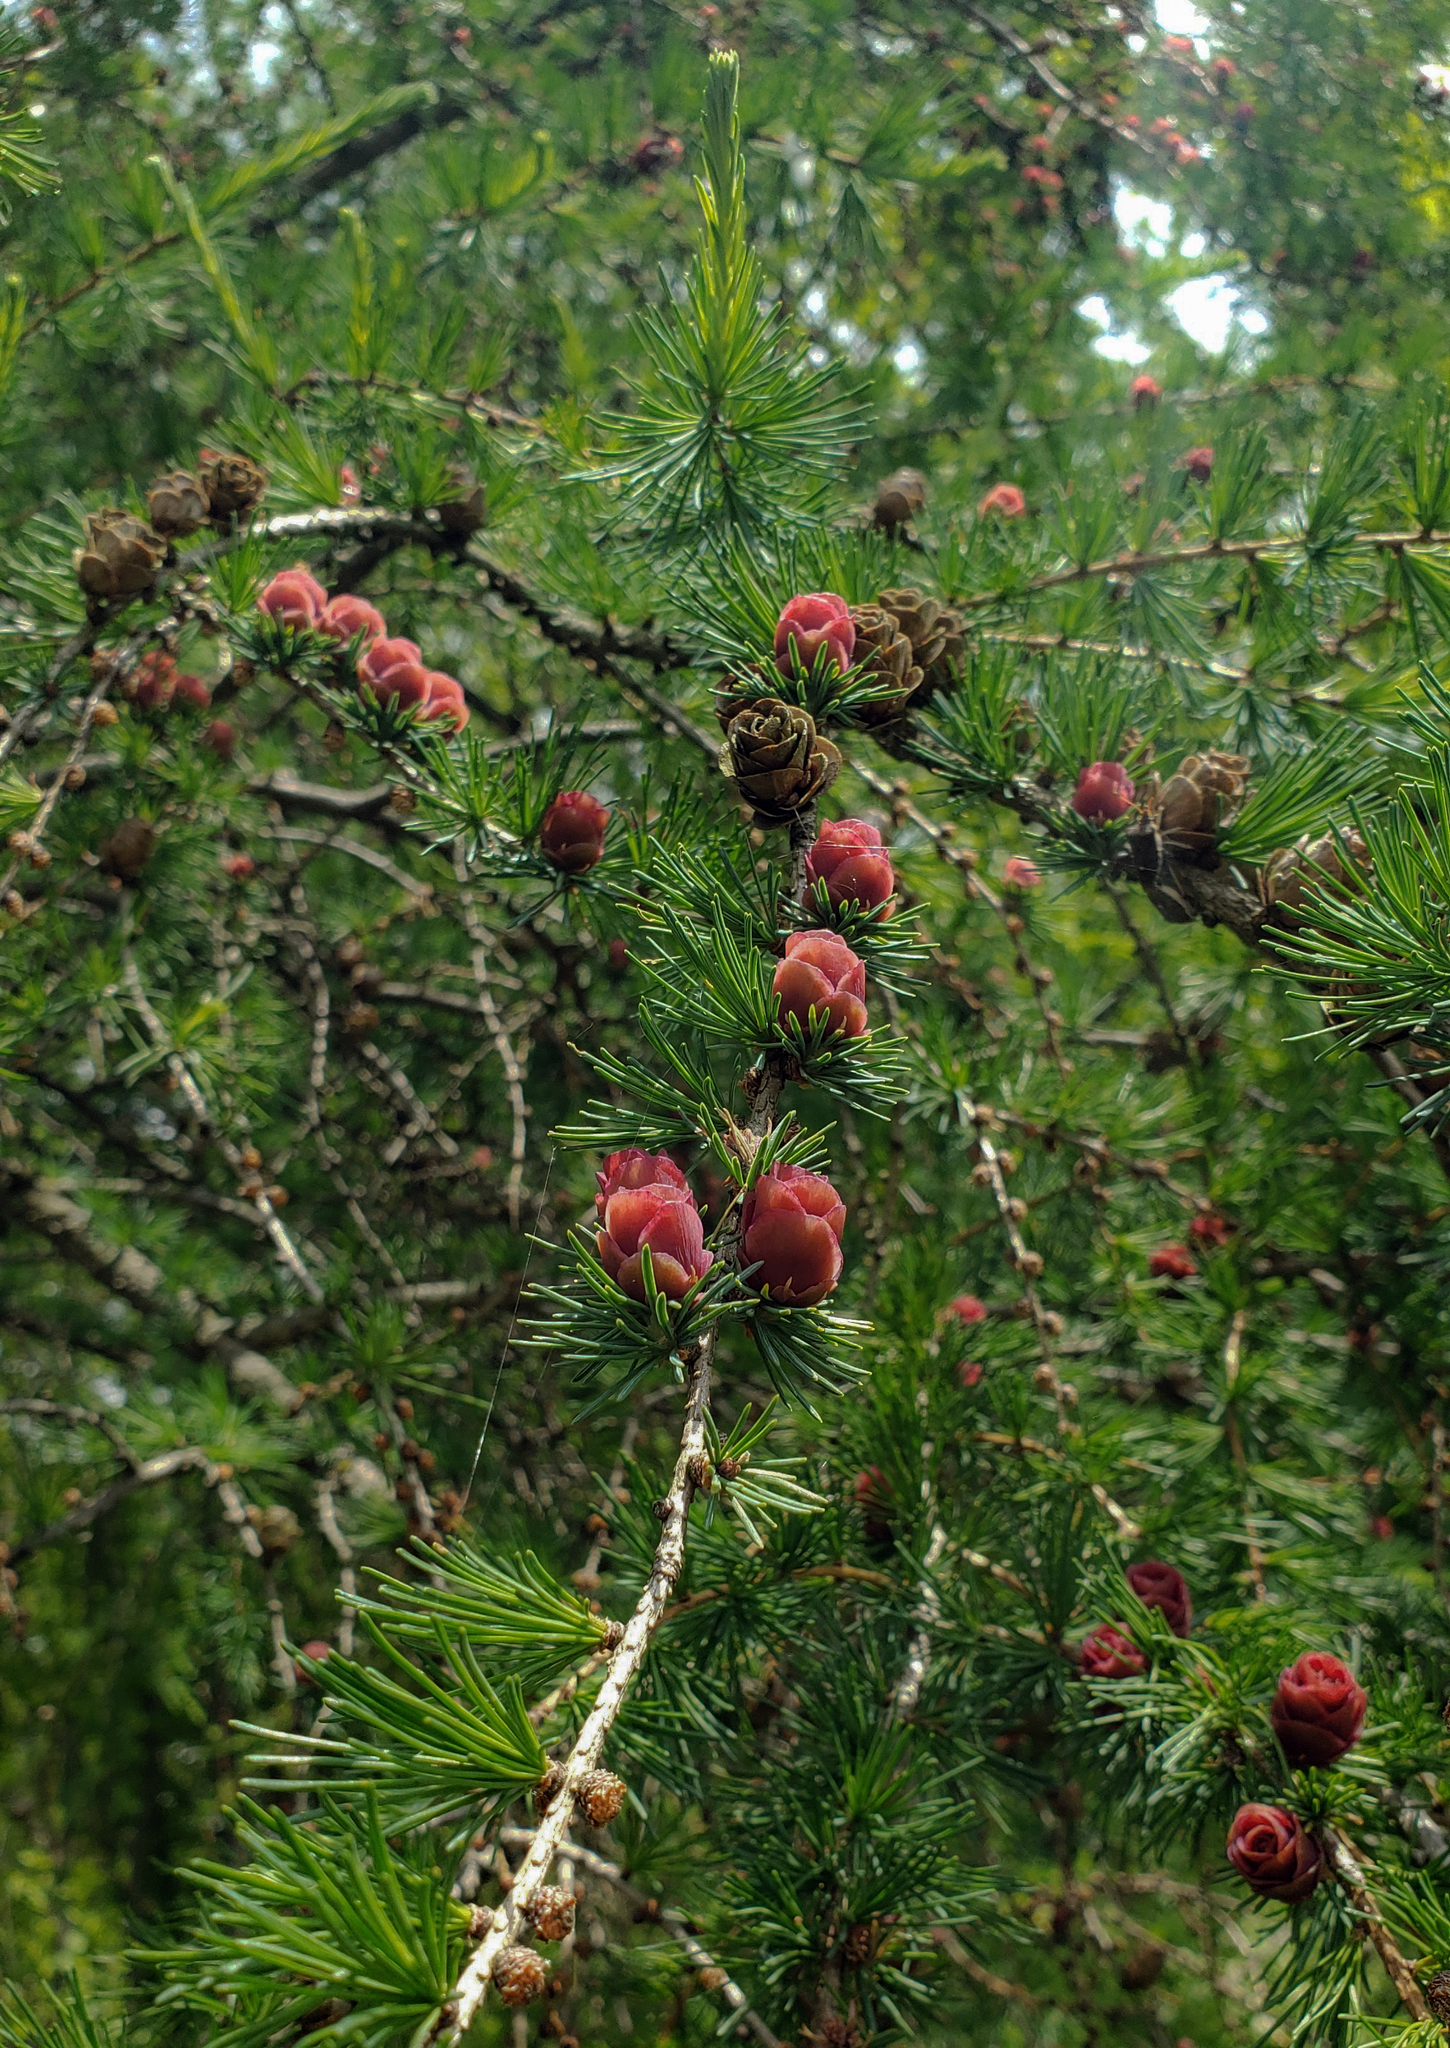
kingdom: Plantae
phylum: Tracheophyta
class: Pinopsida
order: Pinales
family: Pinaceae
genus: Larix
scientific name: Larix laricina
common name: American larch
